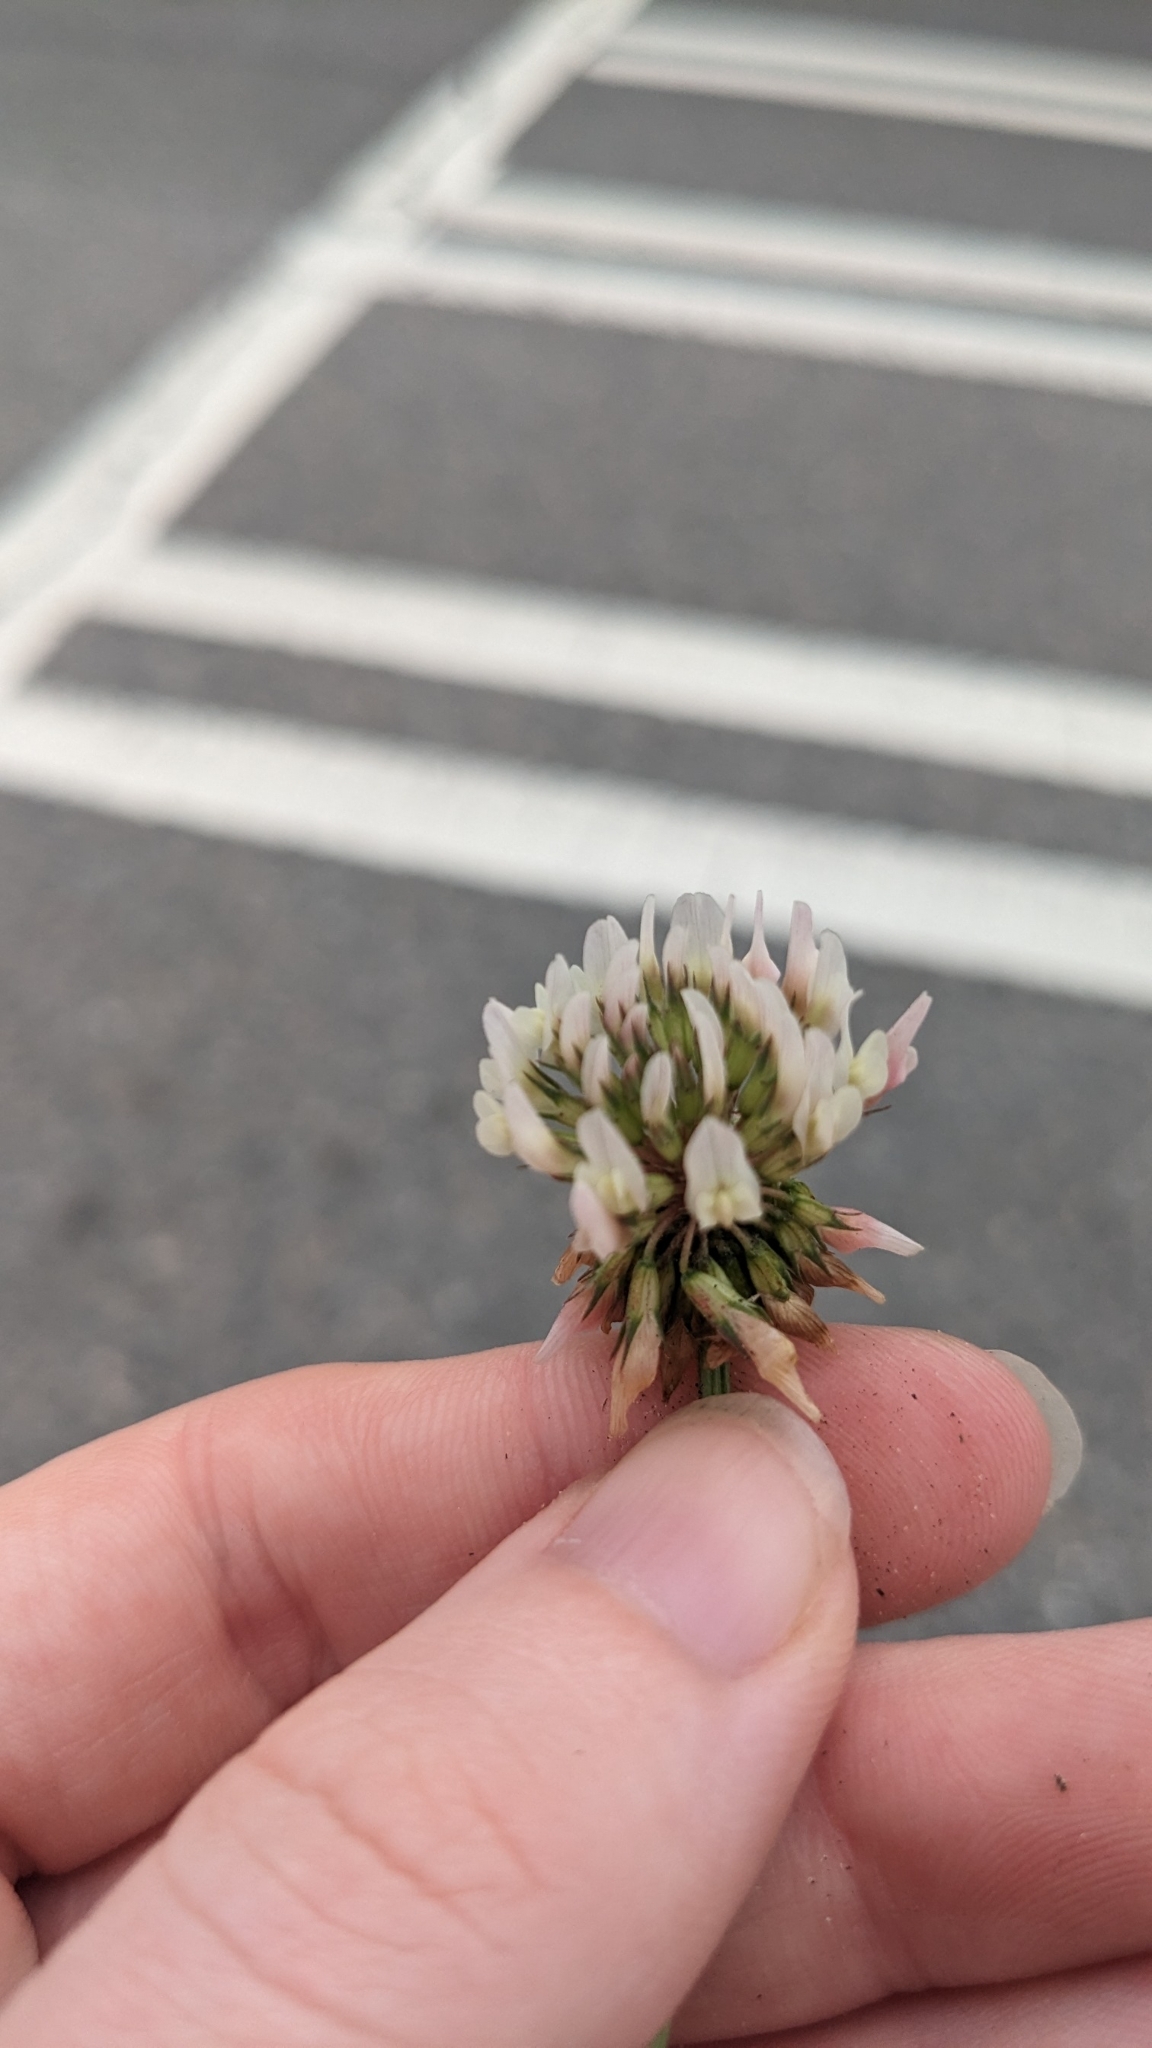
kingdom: Plantae
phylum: Tracheophyta
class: Magnoliopsida
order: Fabales
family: Fabaceae
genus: Trifolium
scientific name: Trifolium repens
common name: White clover
